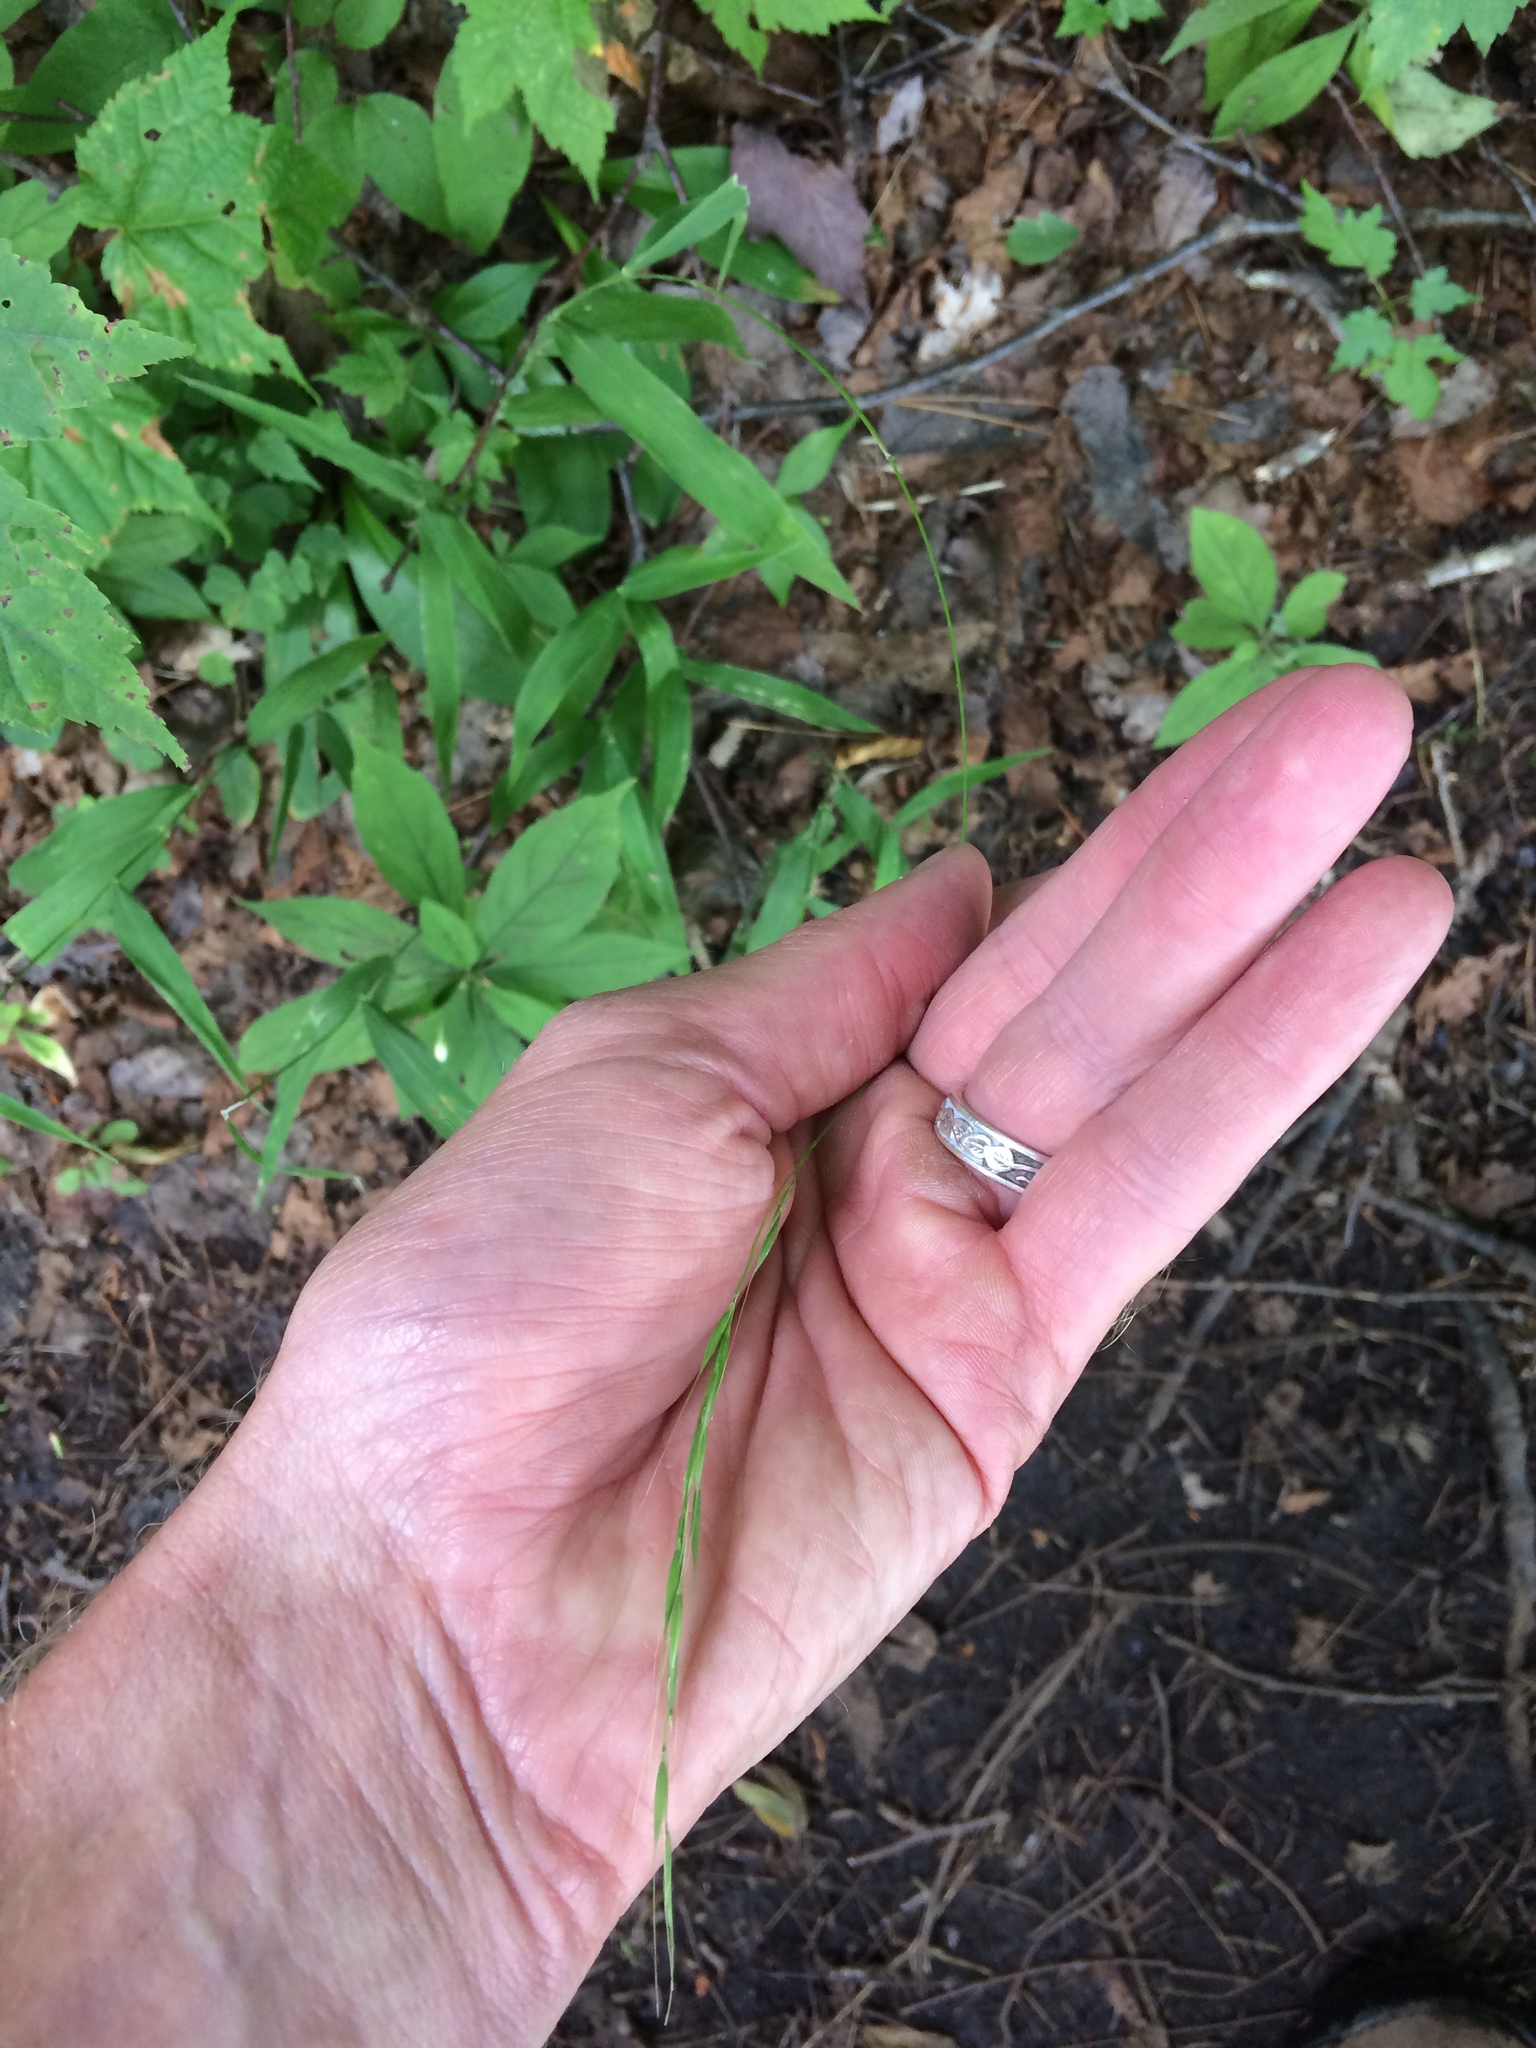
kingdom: Plantae
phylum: Tracheophyta
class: Liliopsida
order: Poales
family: Poaceae
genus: Brachyelytrum
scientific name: Brachyelytrum aristosum
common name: Northern shorthusk
